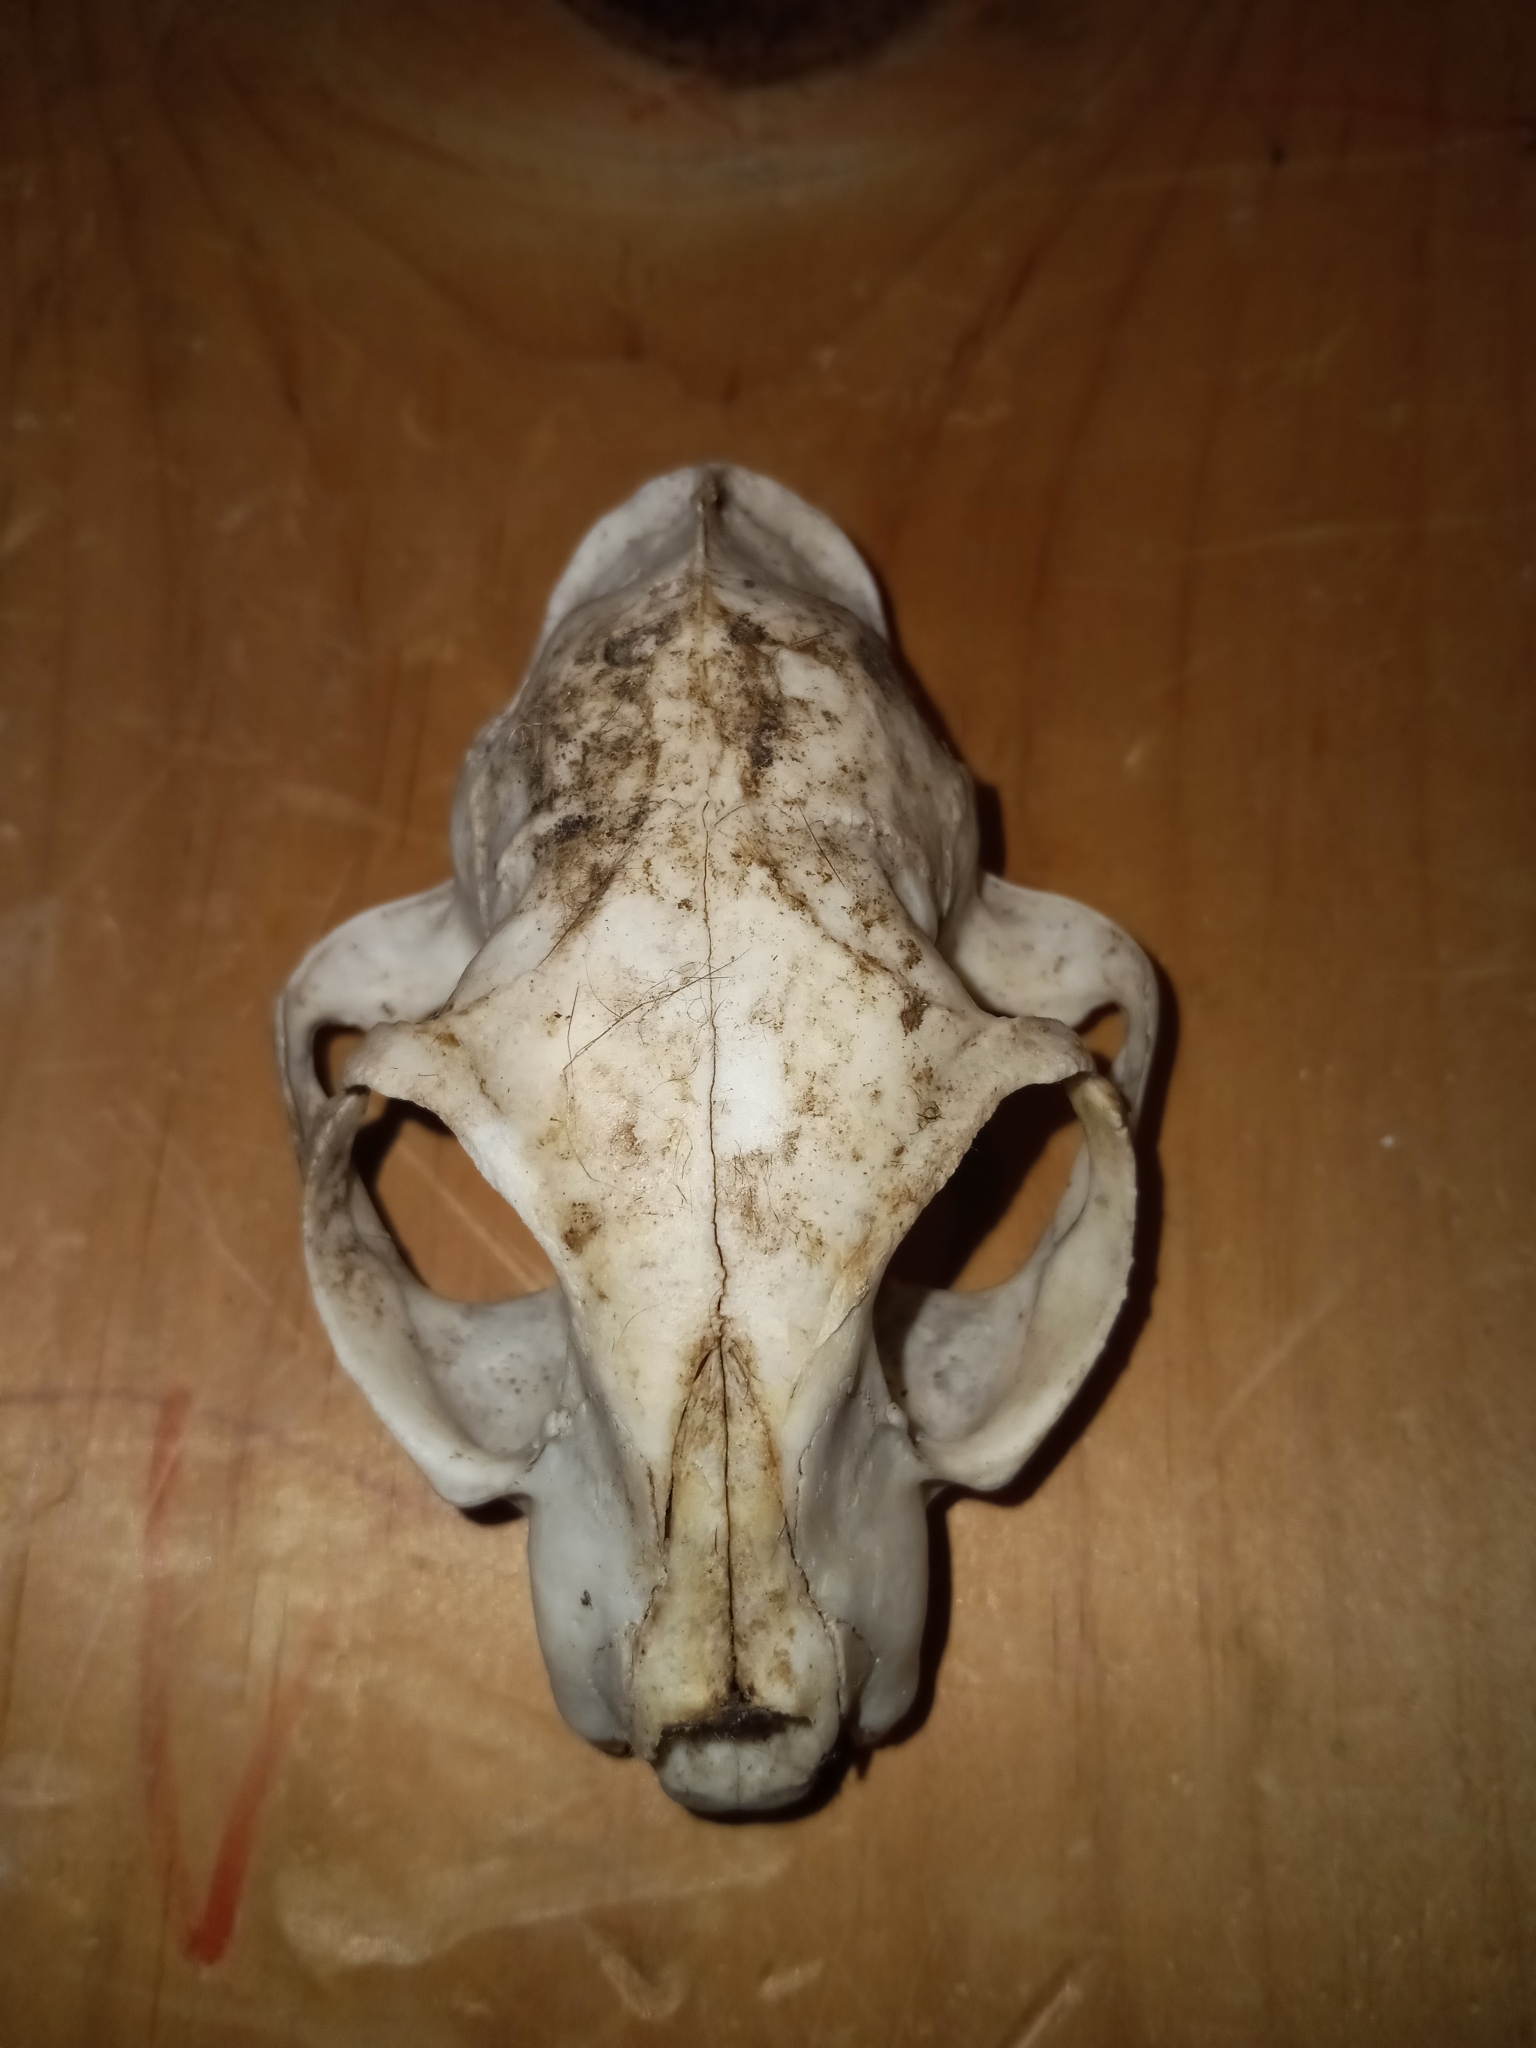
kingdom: Animalia
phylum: Chordata
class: Mammalia
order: Carnivora
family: Felidae
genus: Felis
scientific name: Felis catus
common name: Domestic cat
